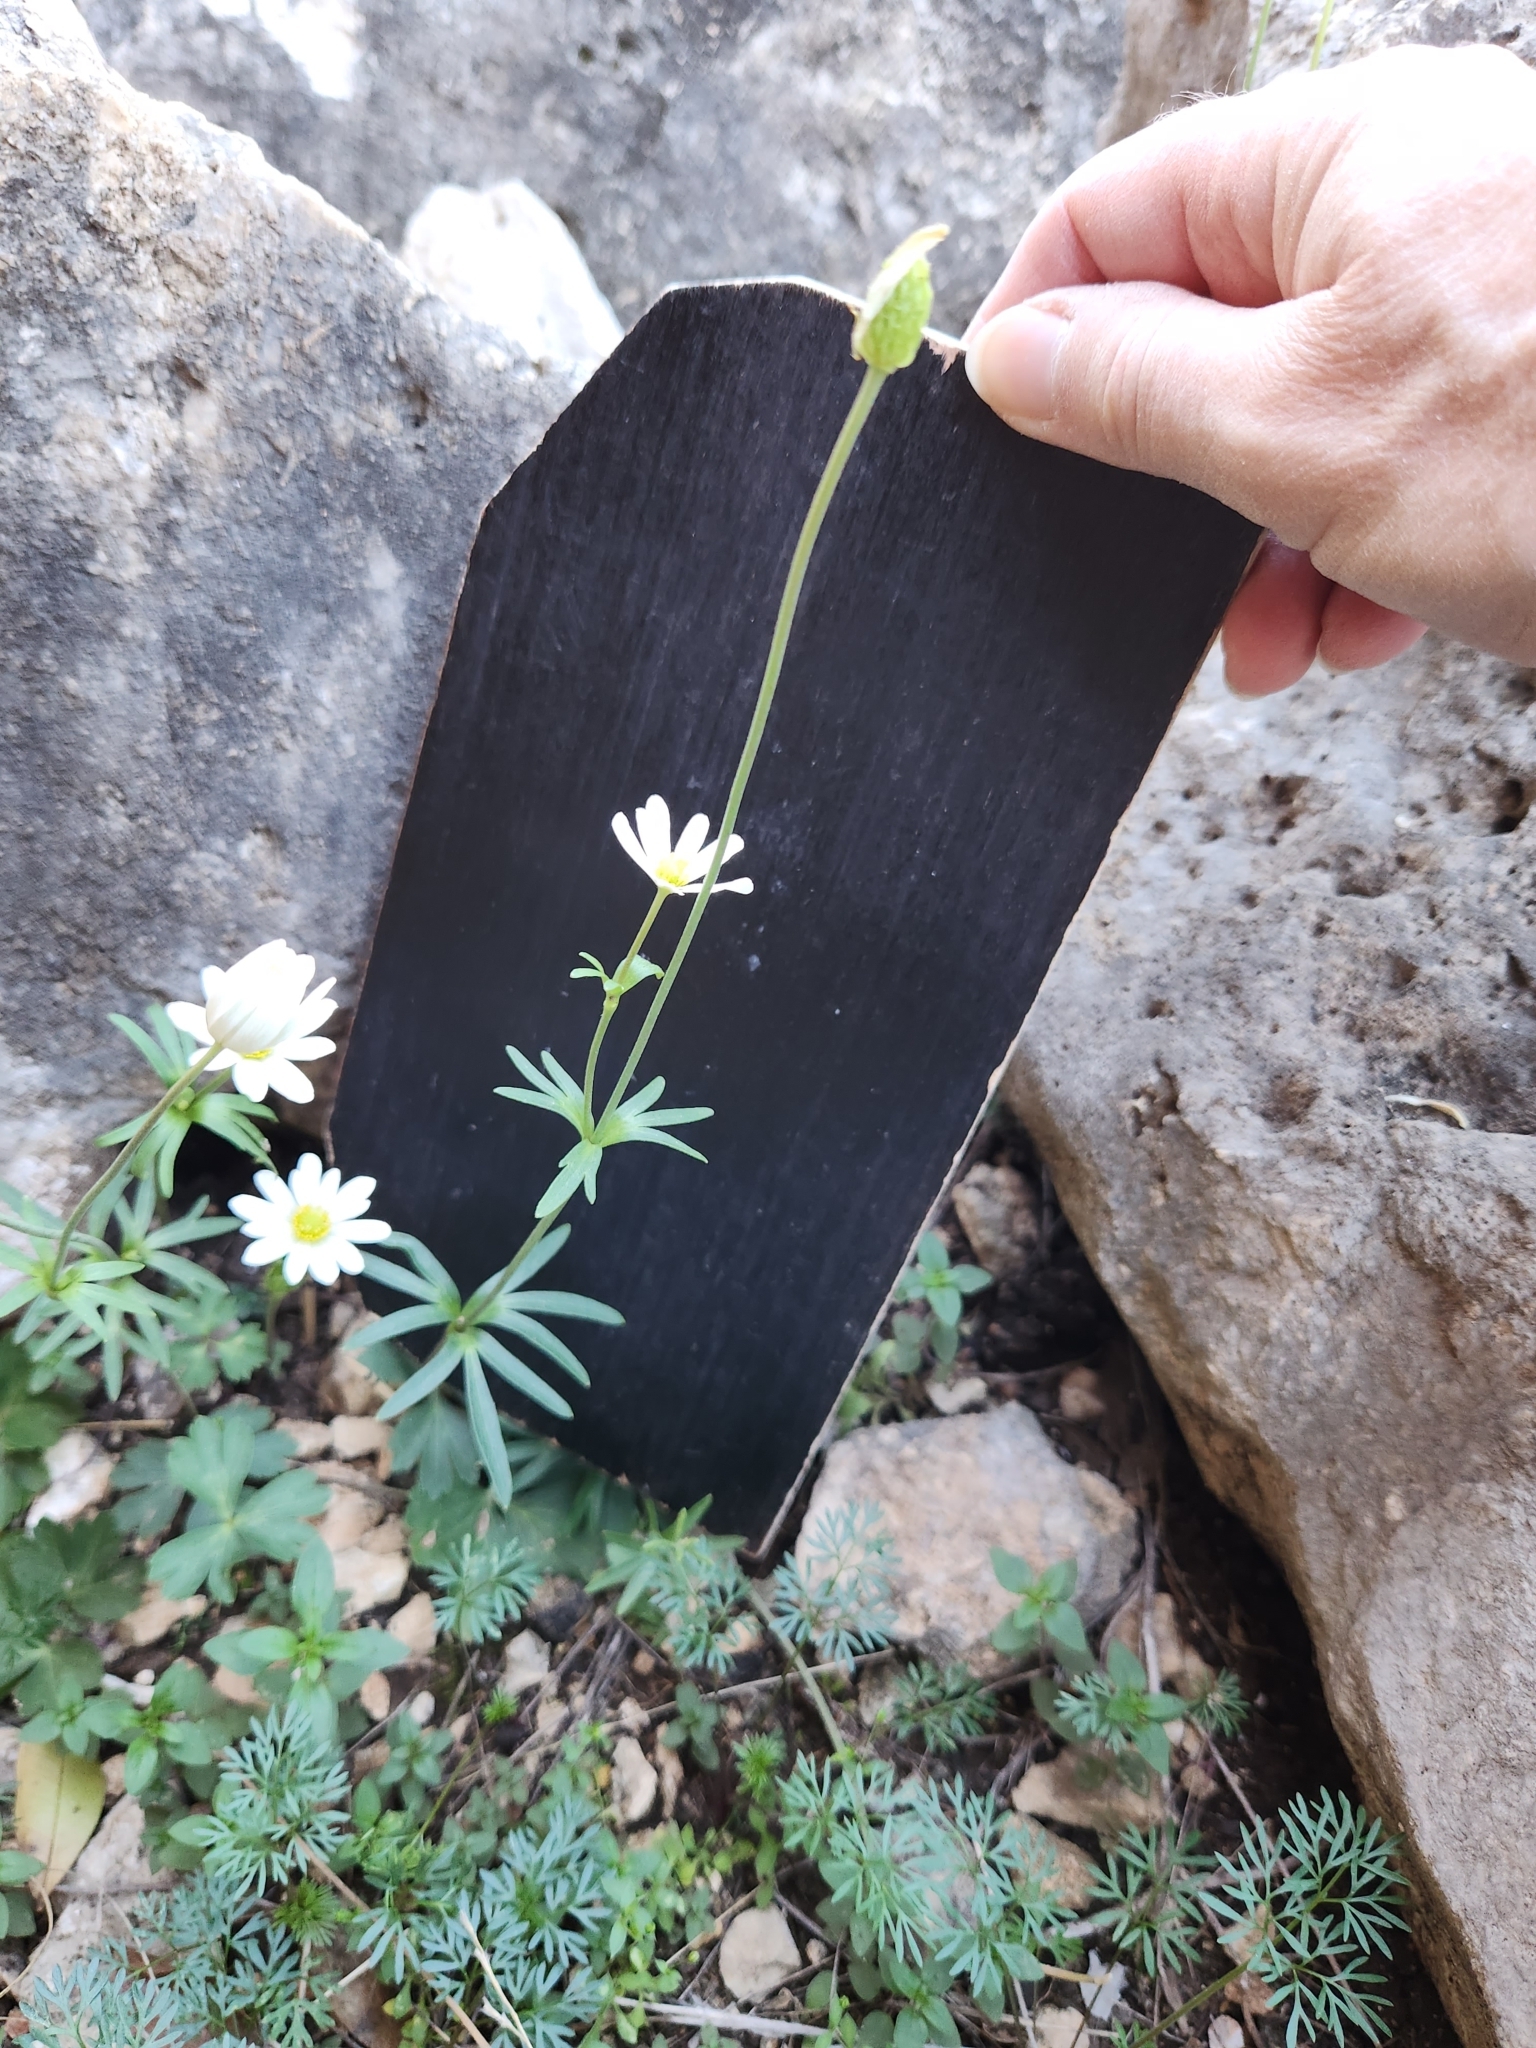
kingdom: Plantae
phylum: Tracheophyta
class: Magnoliopsida
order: Ranunculales
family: Ranunculaceae
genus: Anemone
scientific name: Anemone edwardsiana
